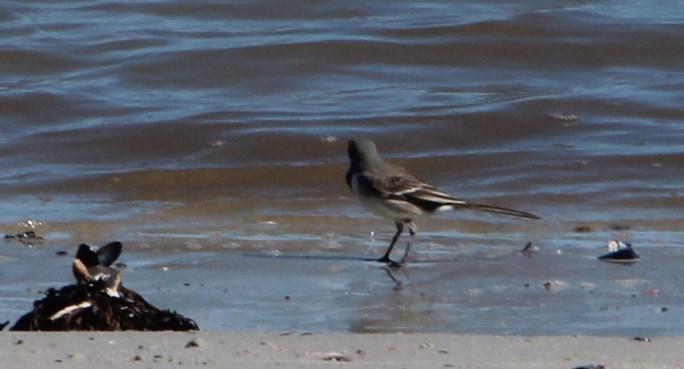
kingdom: Animalia
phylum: Chordata
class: Aves
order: Passeriformes
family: Motacillidae
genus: Motacilla
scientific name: Motacilla capensis
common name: Cape wagtail
